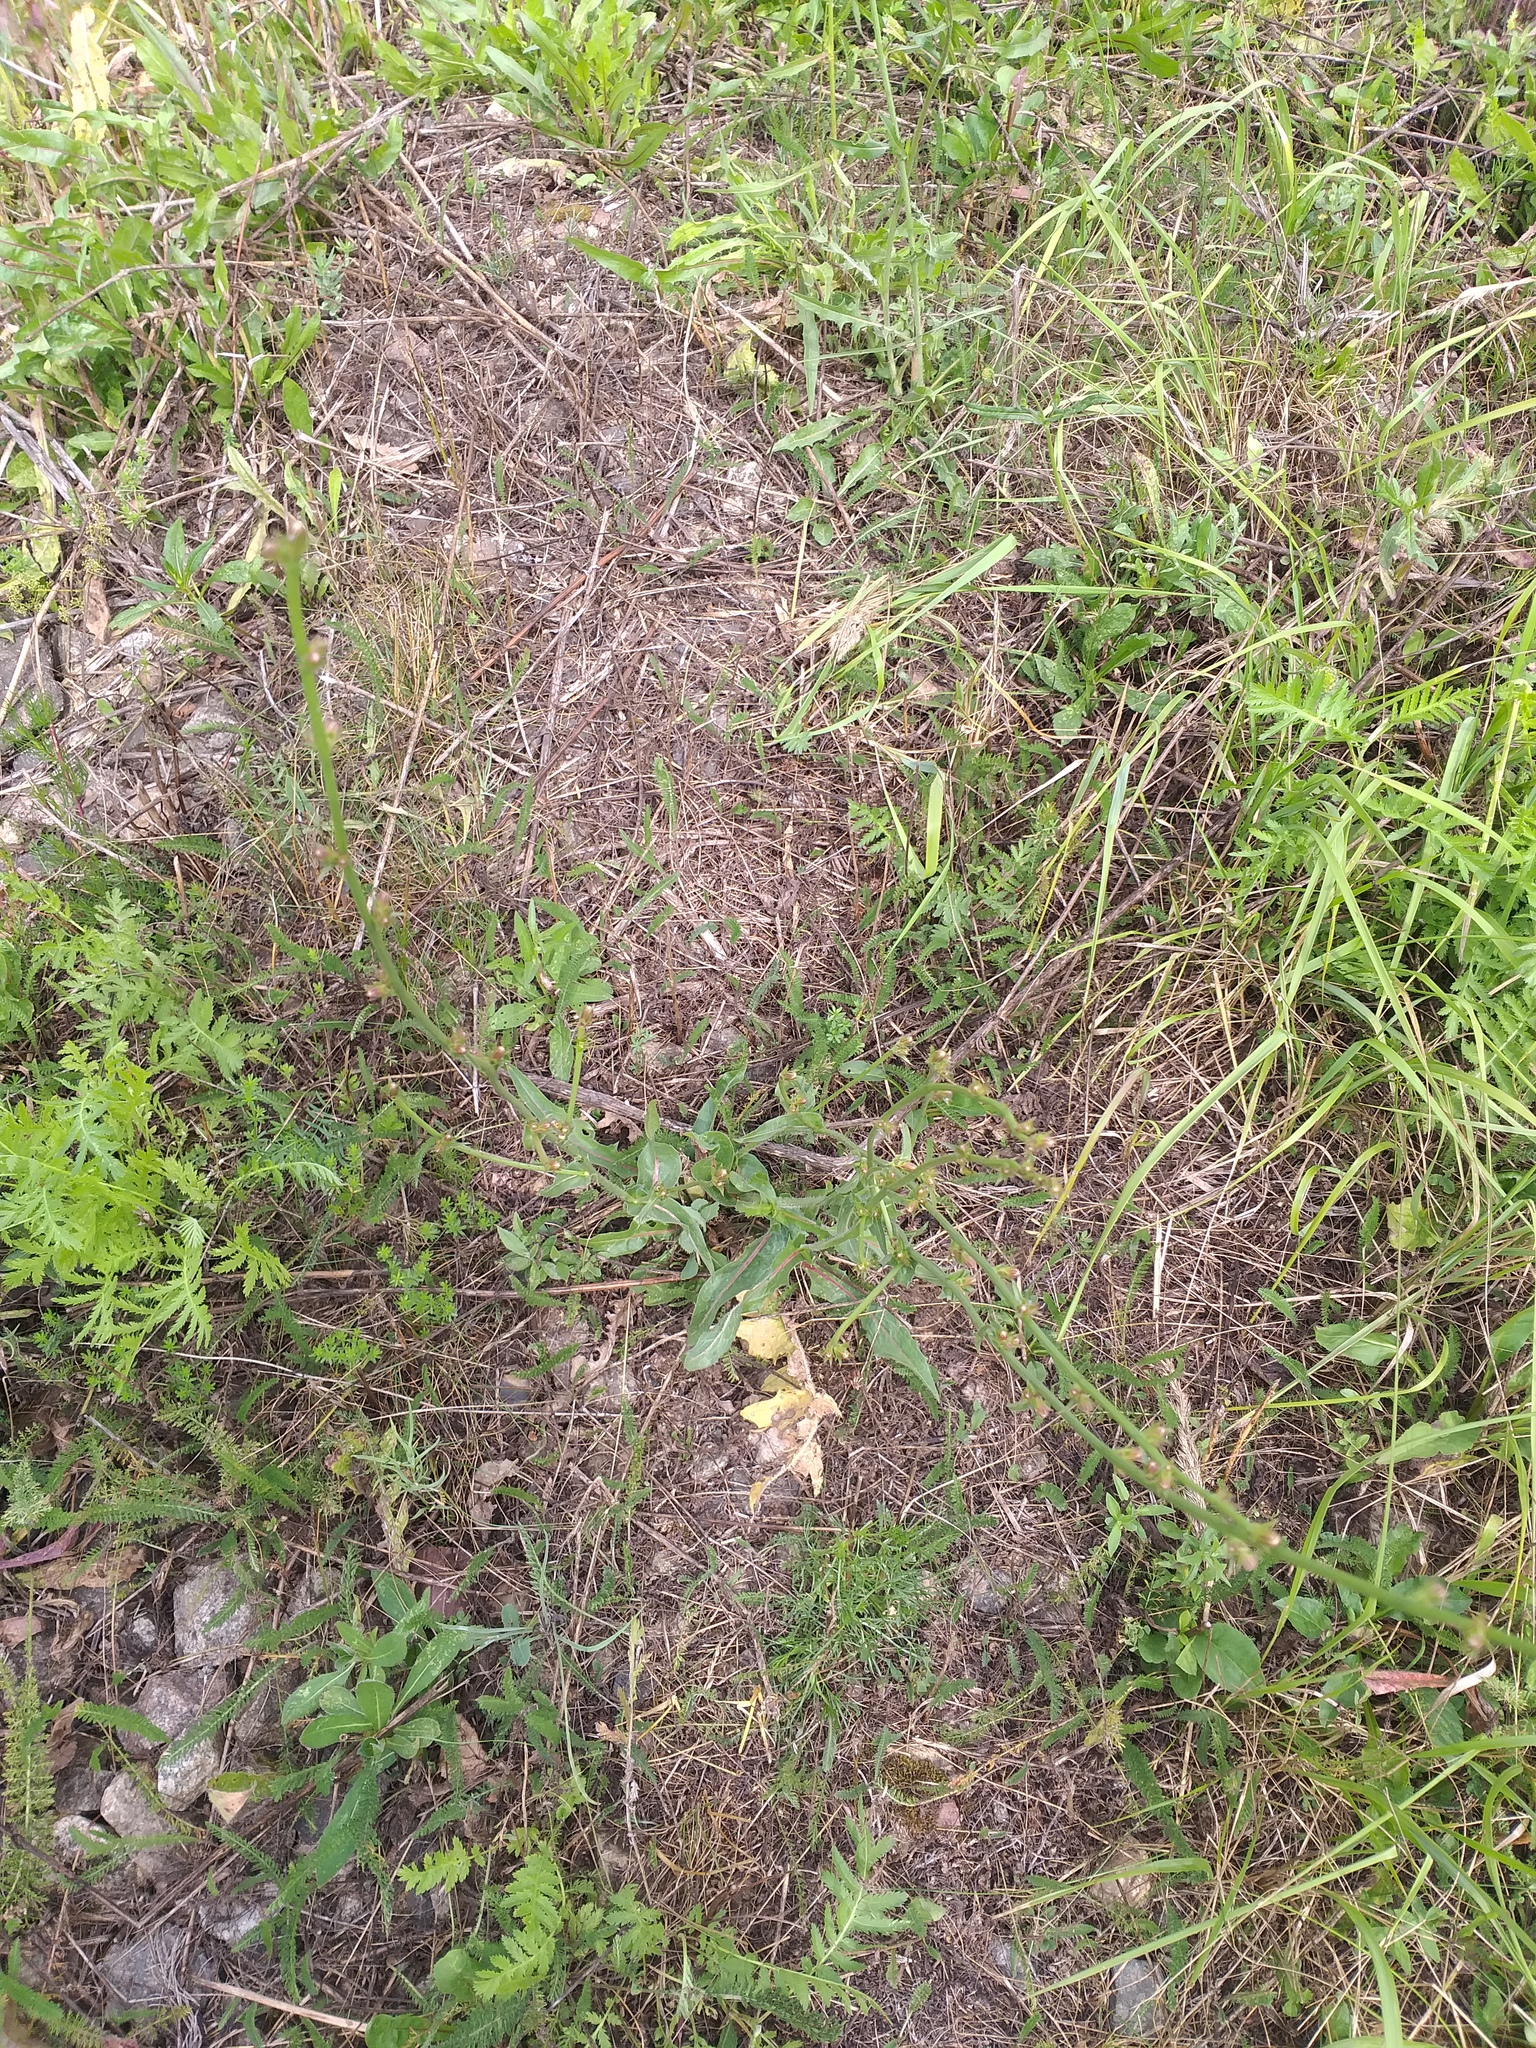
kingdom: Plantae
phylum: Tracheophyta
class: Magnoliopsida
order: Asterales
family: Asteraceae
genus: Cichorium
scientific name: Cichorium intybus
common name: Chicory
